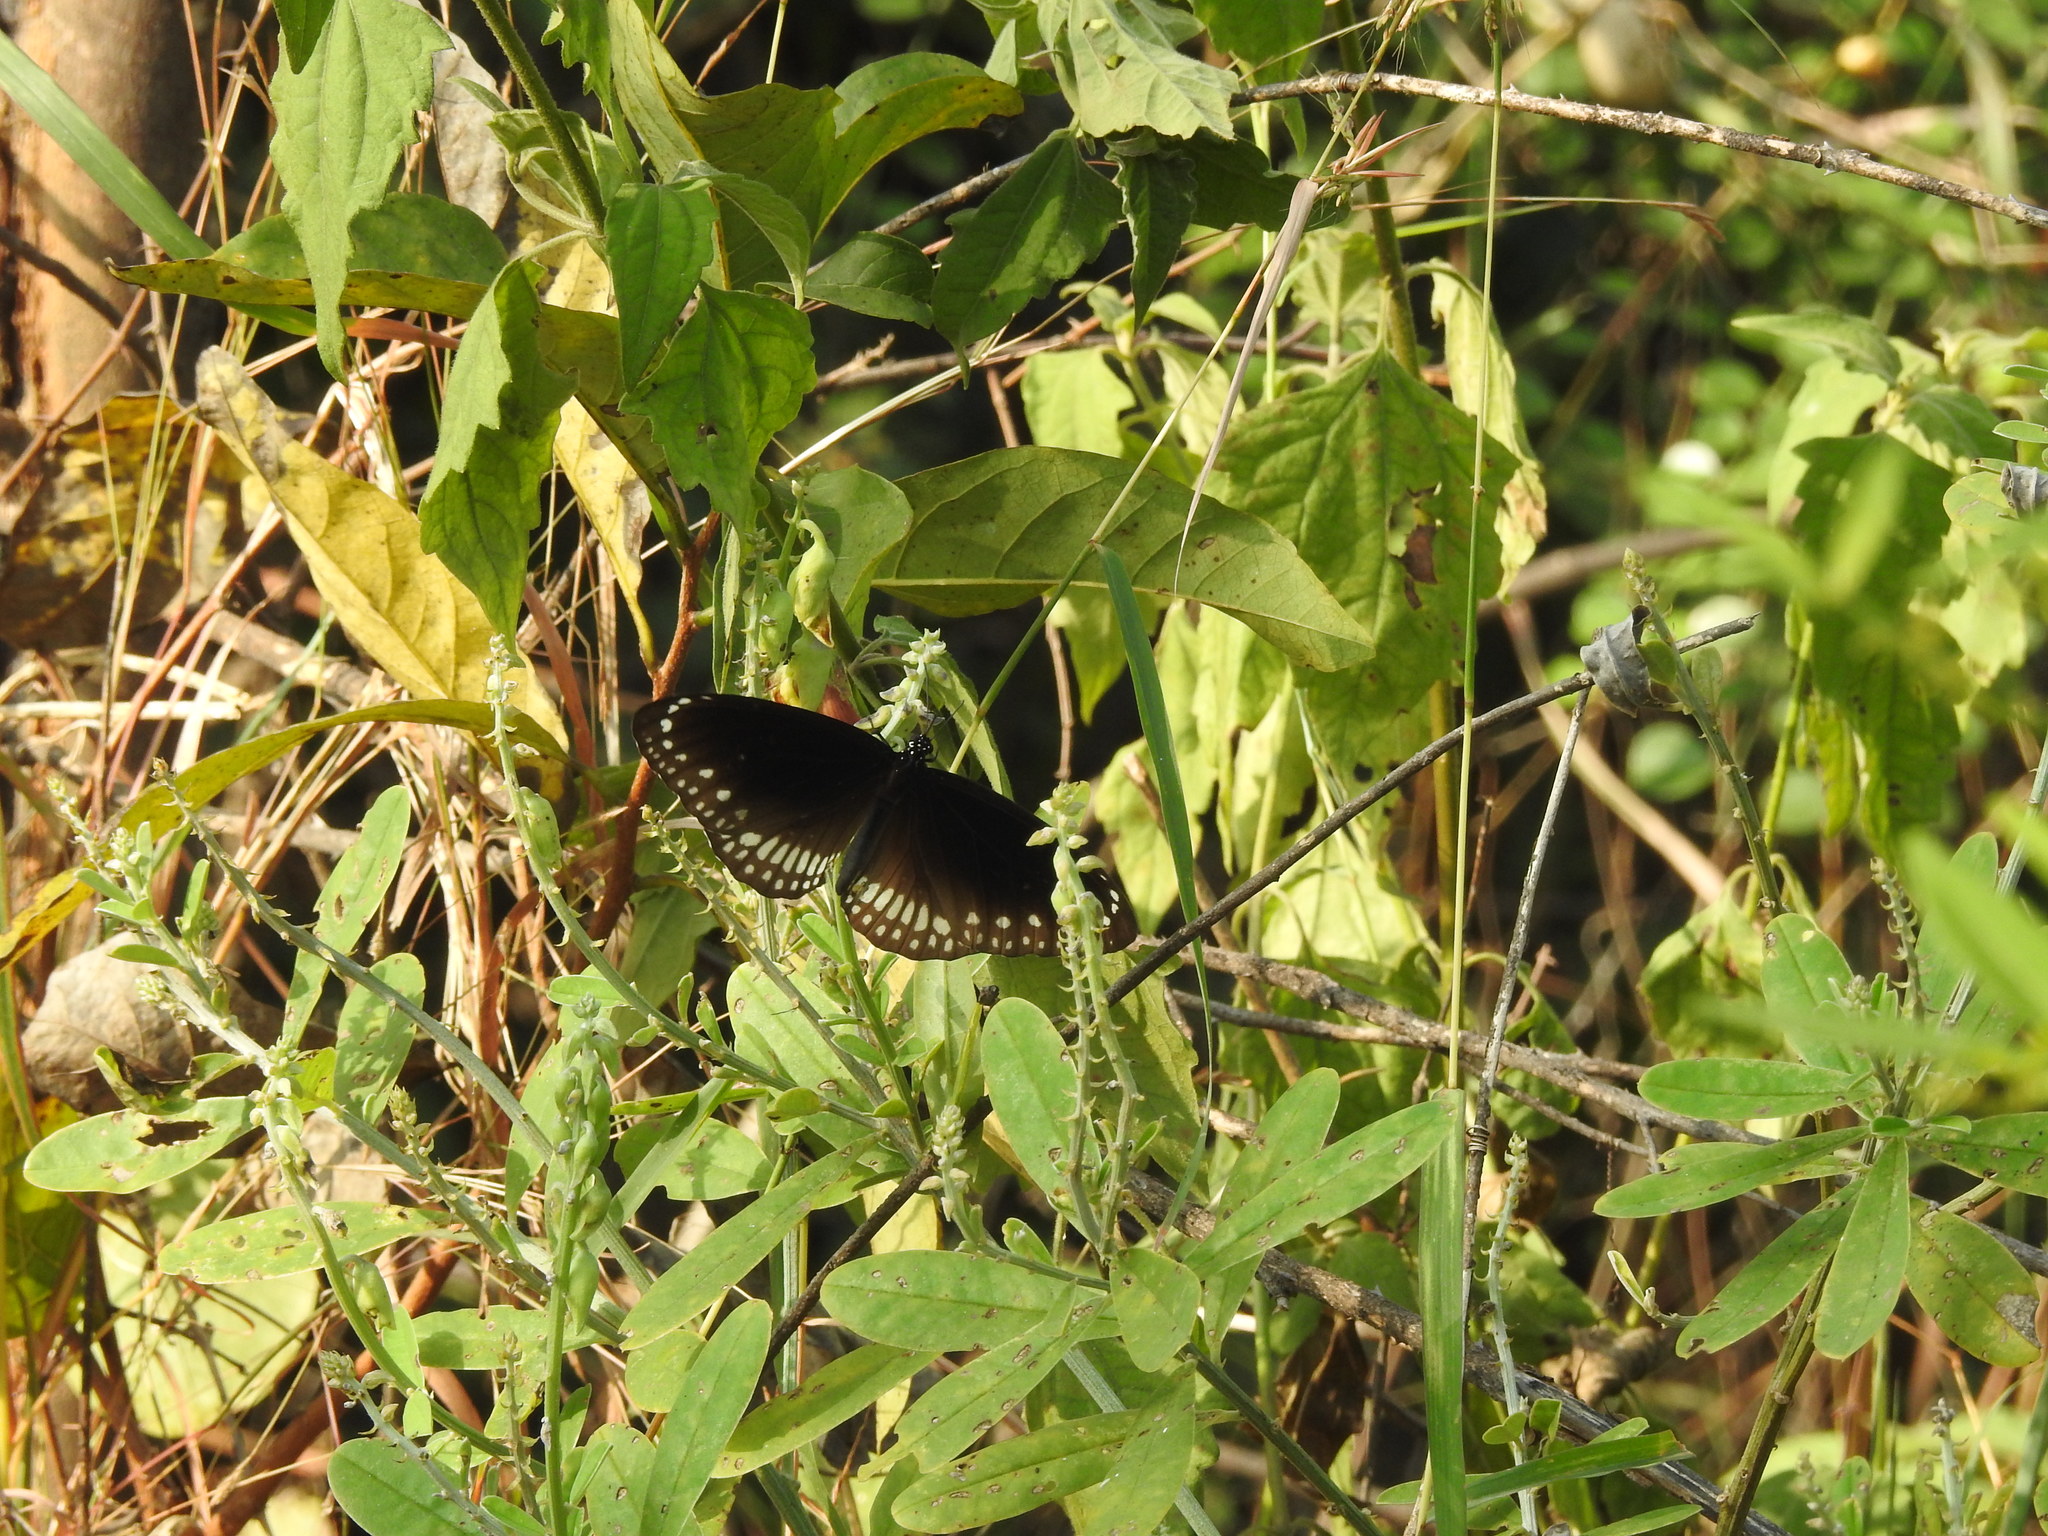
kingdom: Animalia
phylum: Arthropoda
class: Insecta
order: Lepidoptera
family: Nymphalidae
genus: Euploea
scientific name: Euploea core
